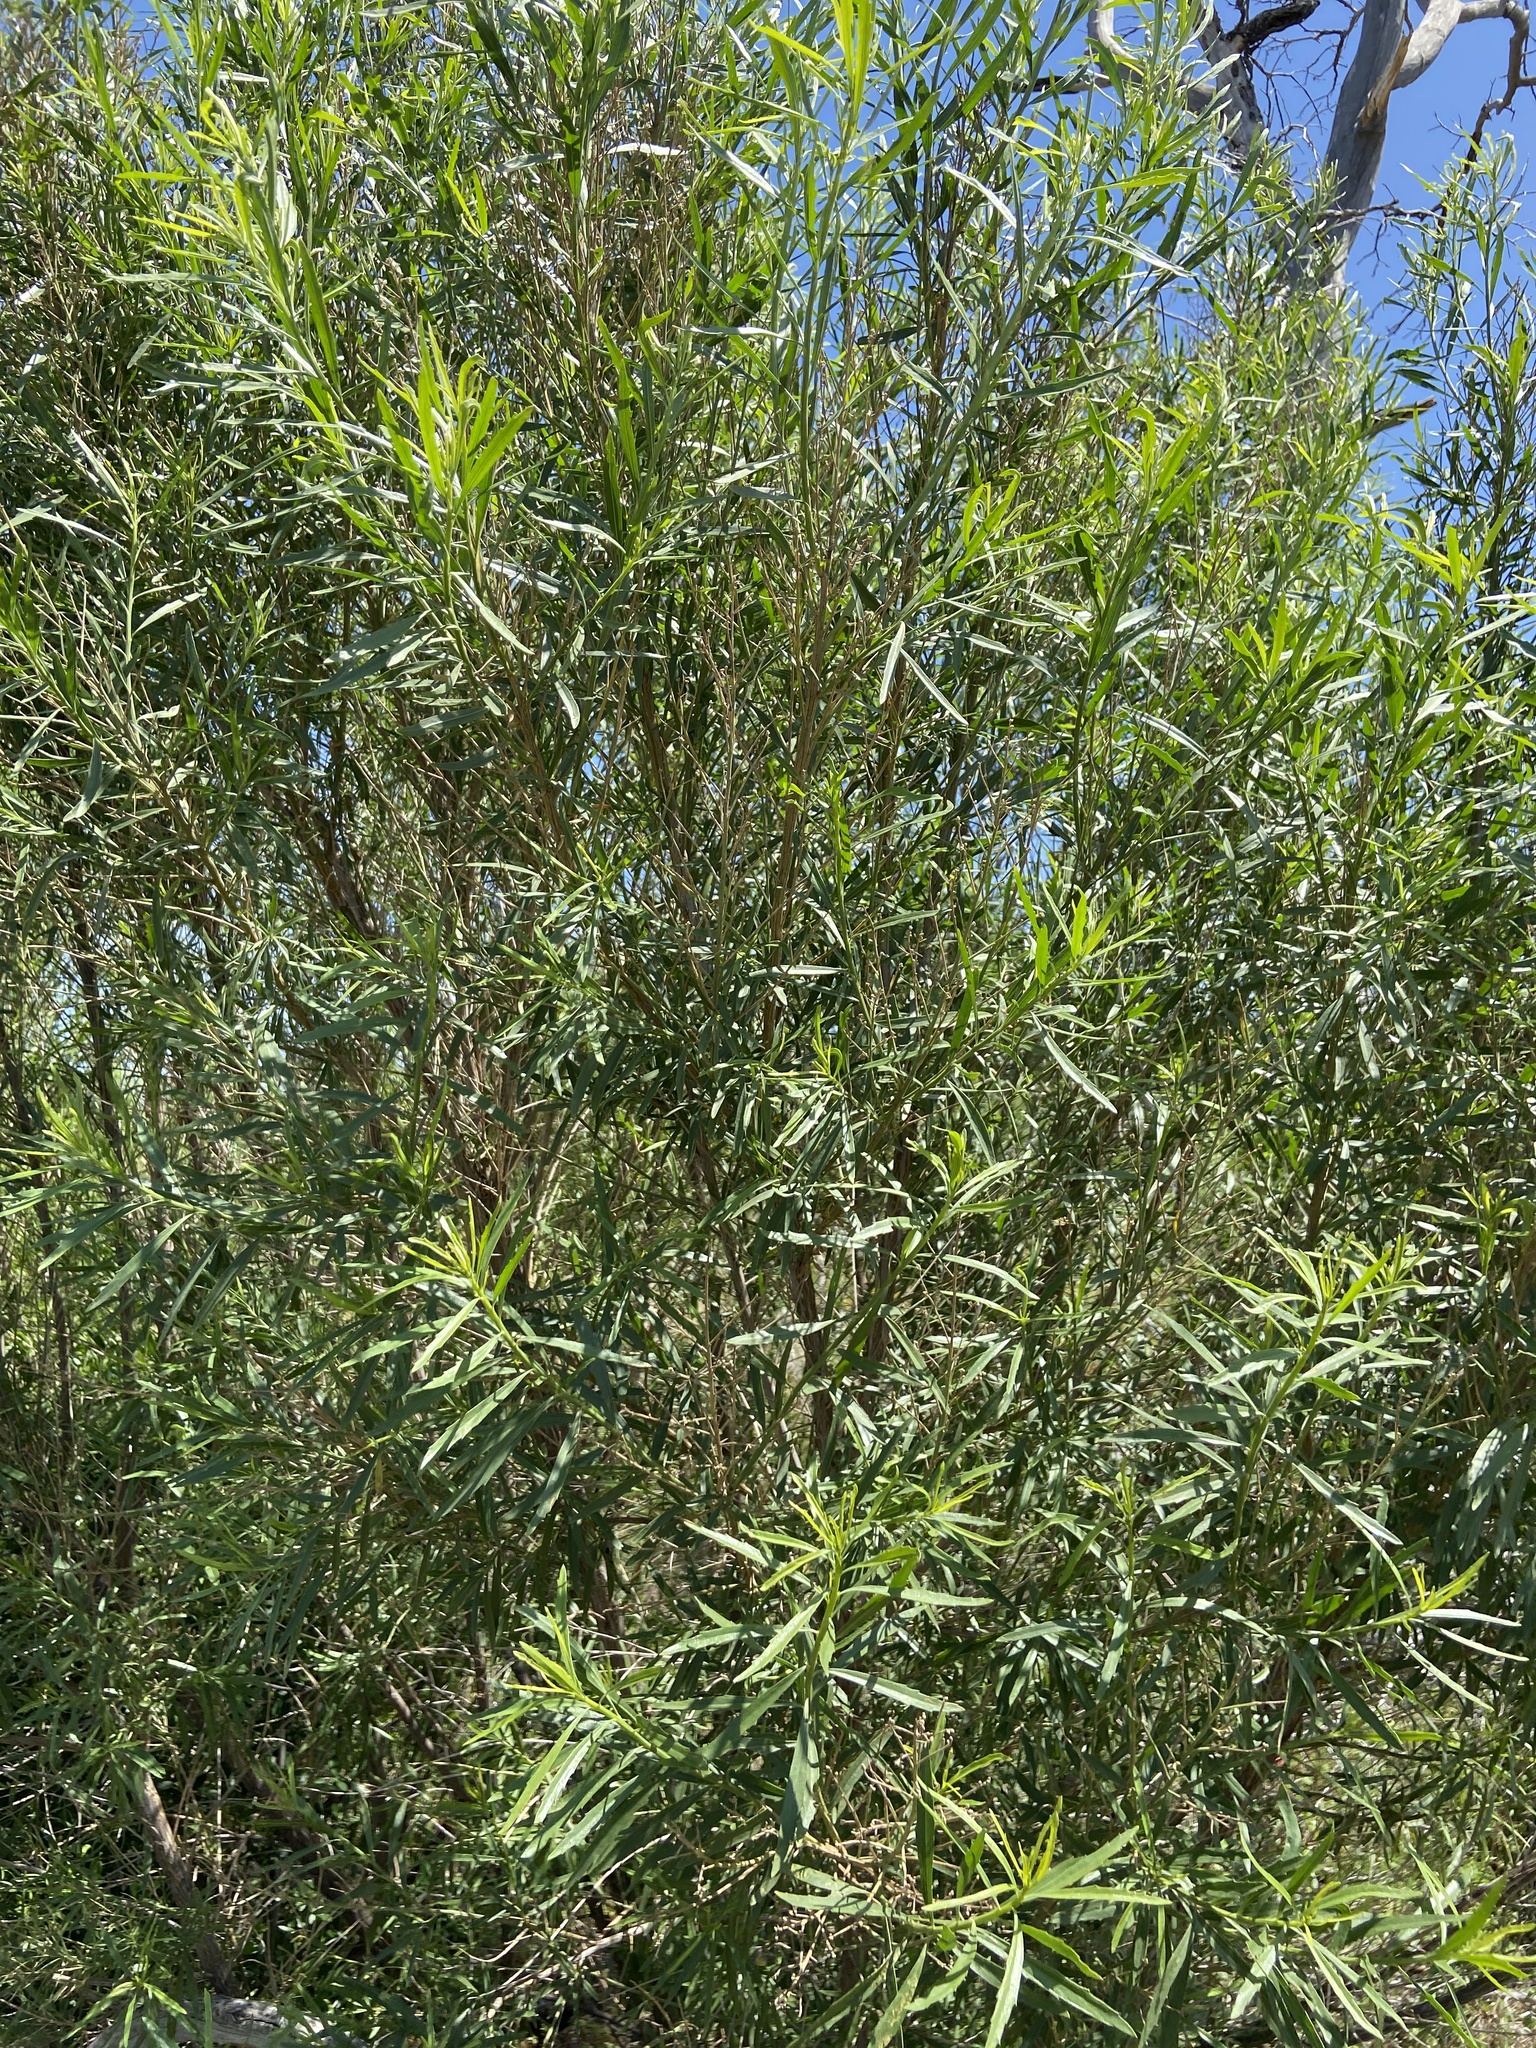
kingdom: Plantae
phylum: Tracheophyta
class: Magnoliopsida
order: Asterales
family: Asteraceae
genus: Baccharis
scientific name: Baccharis neglecta
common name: Roosevelt-weed
